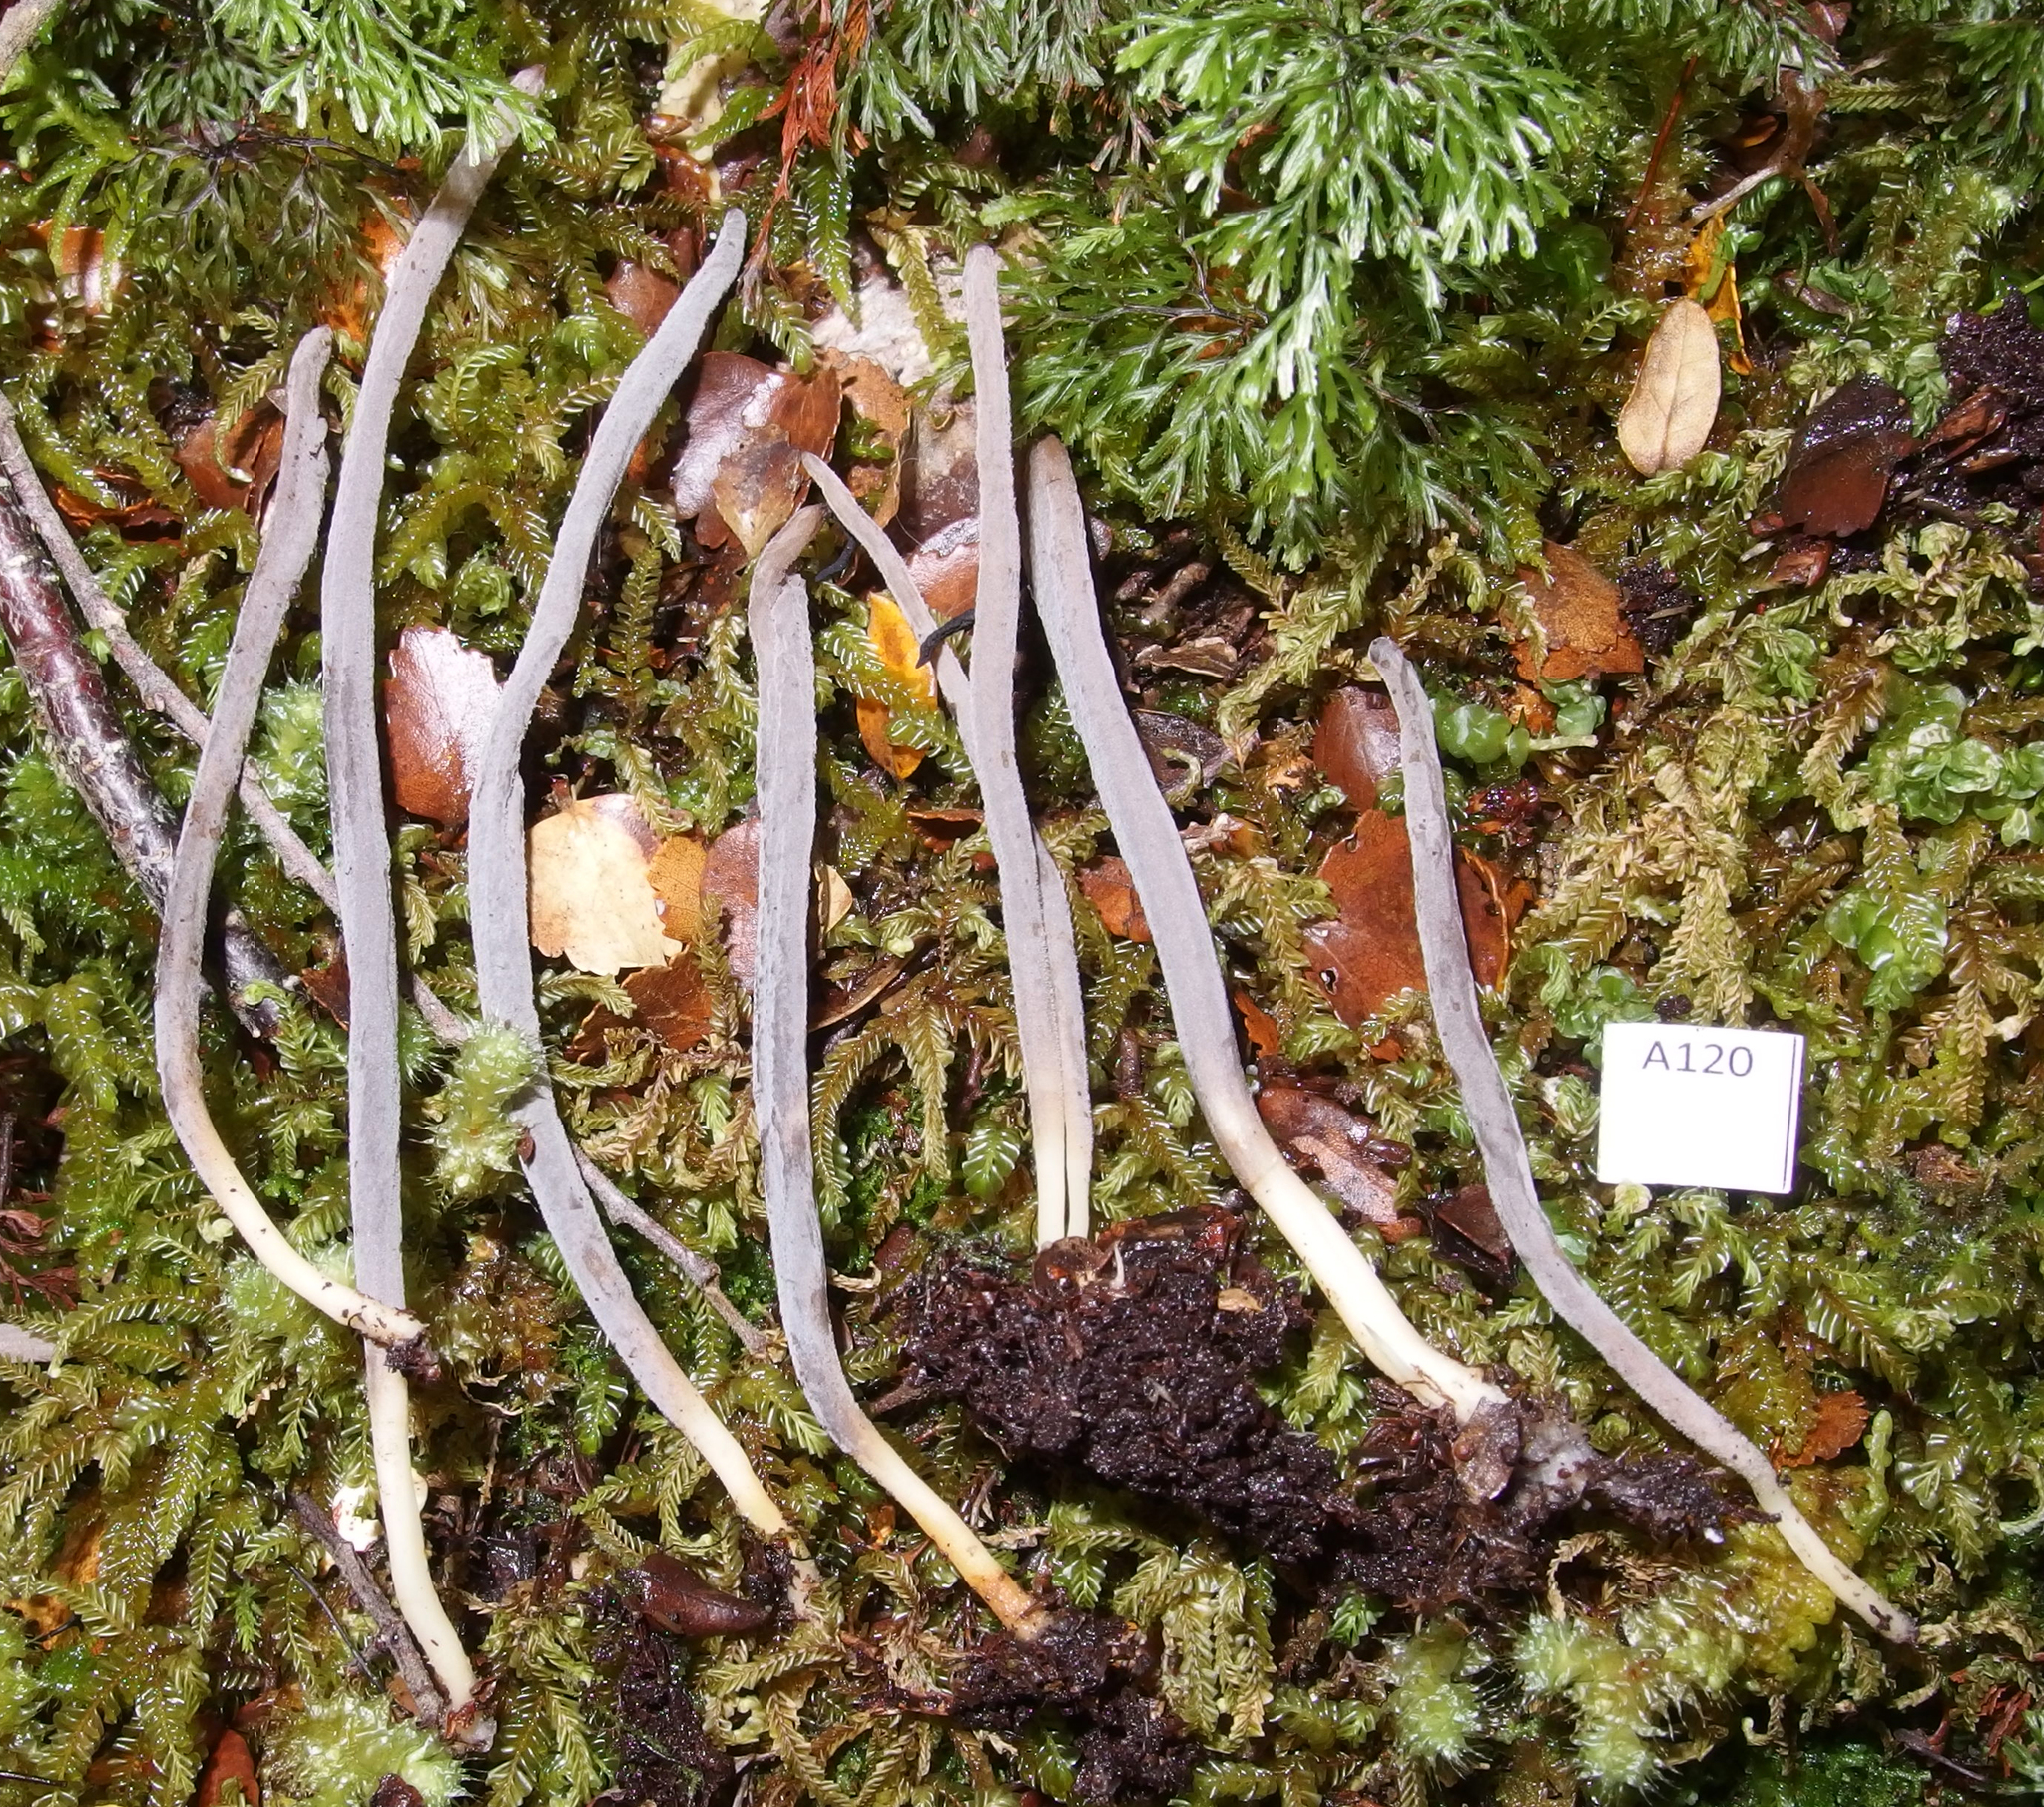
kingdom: Fungi
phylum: Basidiomycota
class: Agaricomycetes
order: Cantharellales
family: Hydnaceae
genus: Clavulina
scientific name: Clavulina
